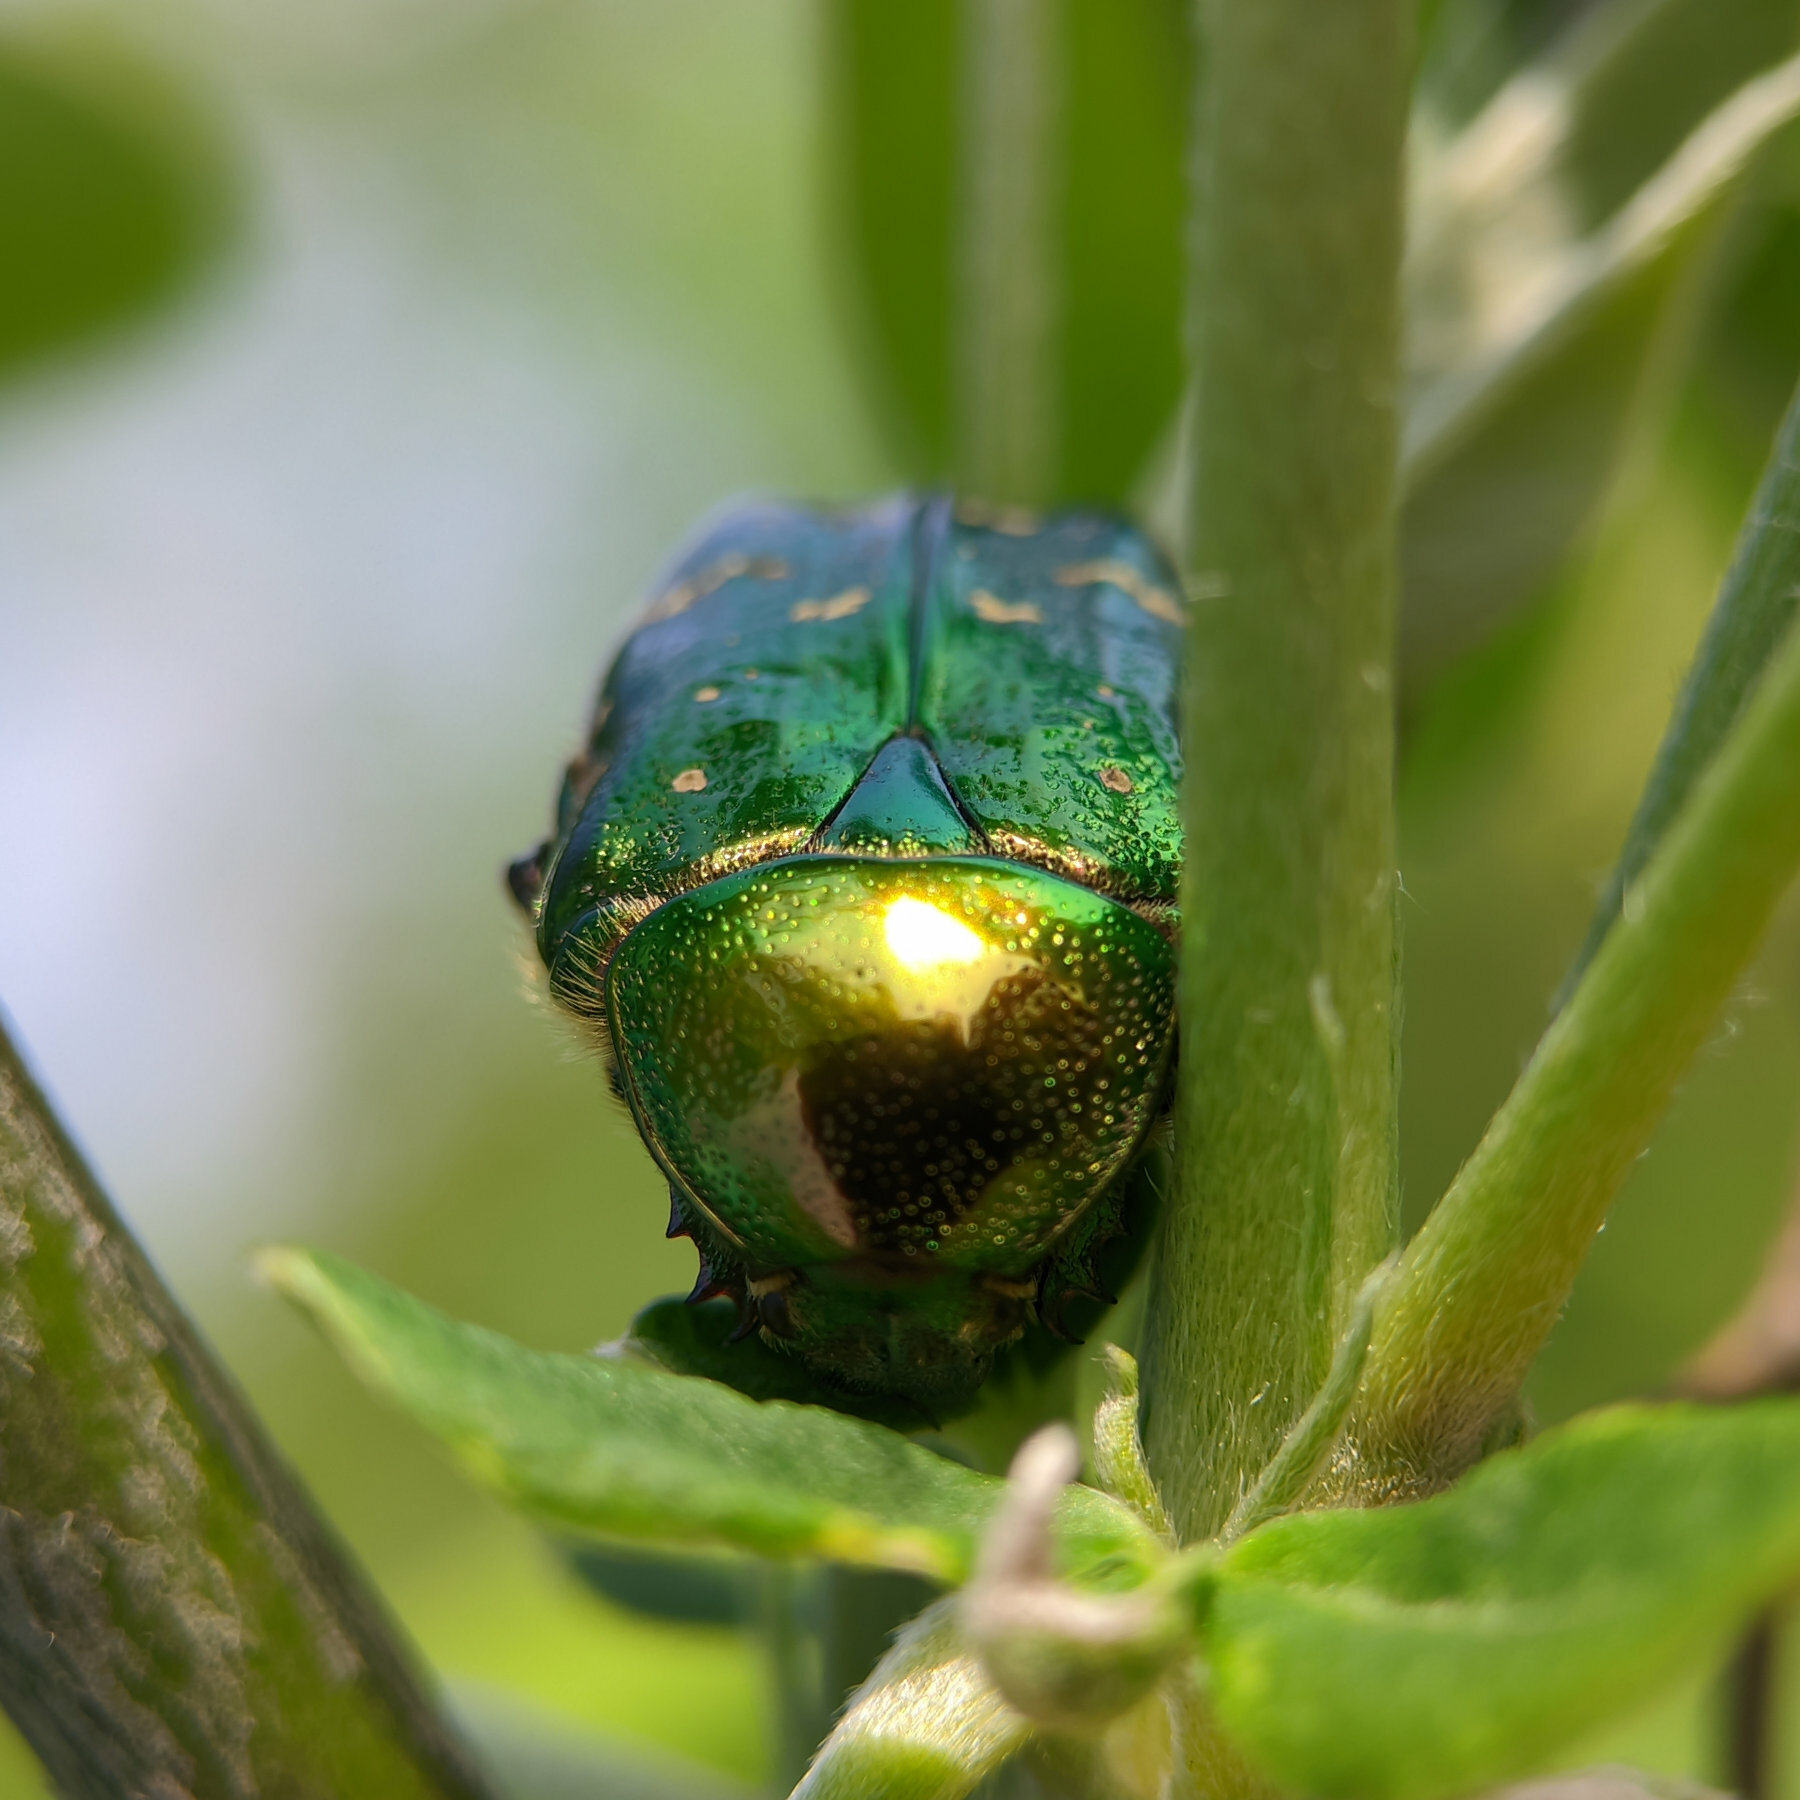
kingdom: Animalia
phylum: Arthropoda
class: Insecta
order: Coleoptera
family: Scarabaeidae
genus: Cetonia
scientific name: Cetonia aurata
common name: Rose chafer
